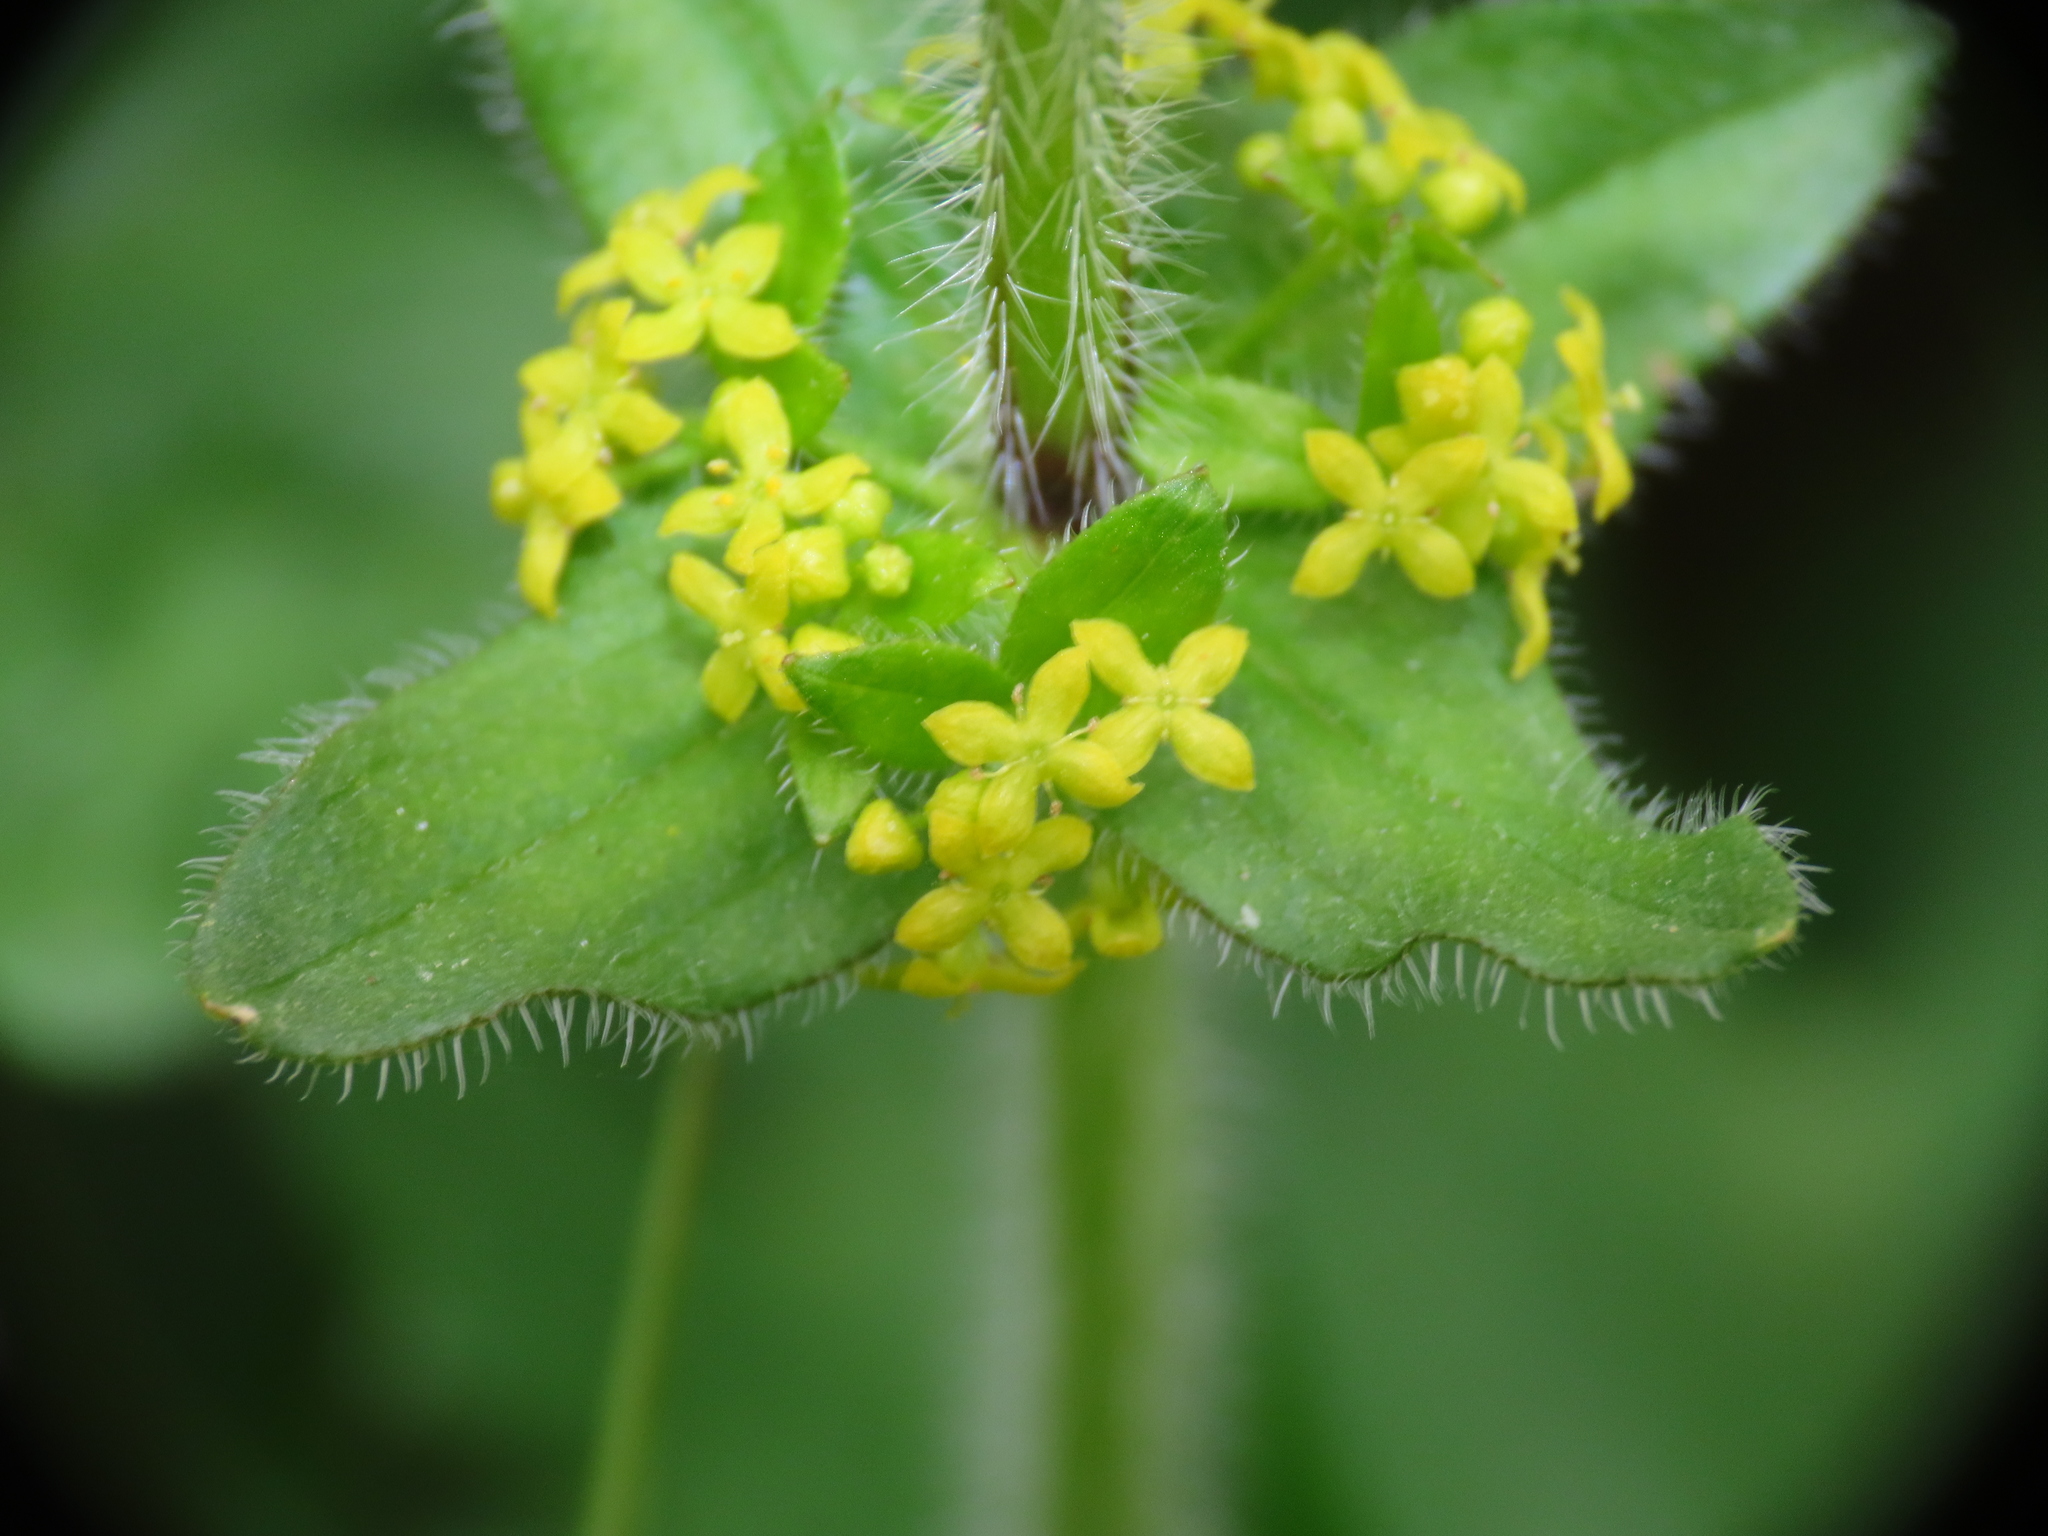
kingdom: Plantae
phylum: Tracheophyta
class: Magnoliopsida
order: Gentianales
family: Rubiaceae
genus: Cruciata
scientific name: Cruciata laevipes
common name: Crosswort
